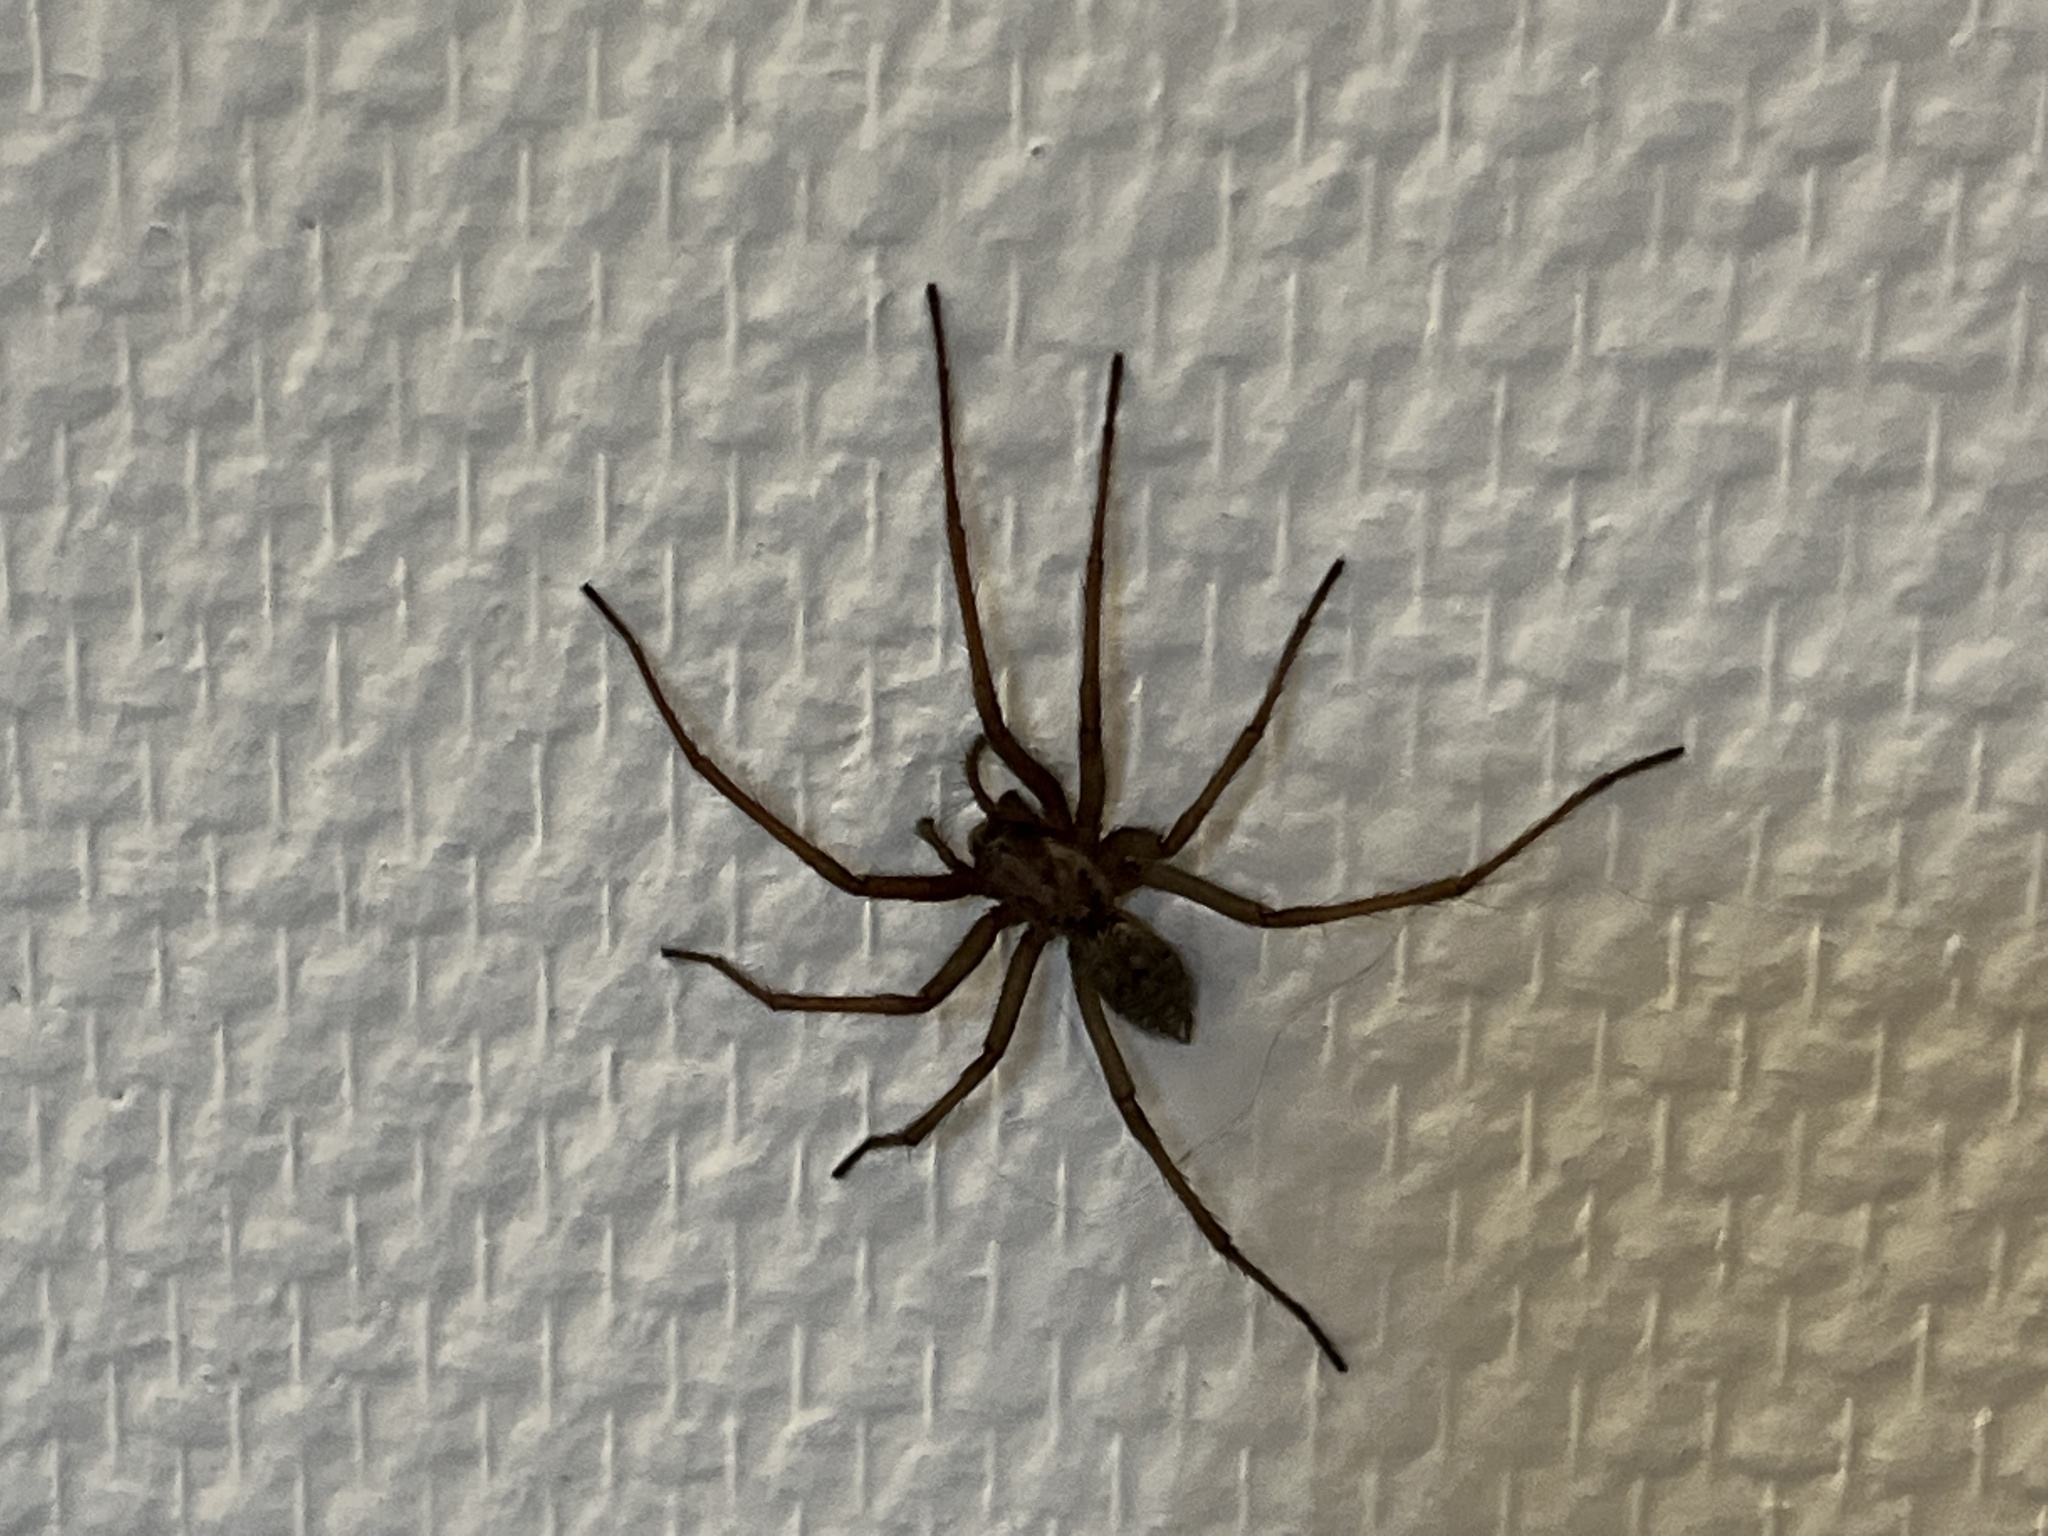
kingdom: Animalia
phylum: Arthropoda
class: Arachnida
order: Araneae
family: Agelenidae
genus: Eratigena
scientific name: Eratigena atrica
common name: Giant house spider
